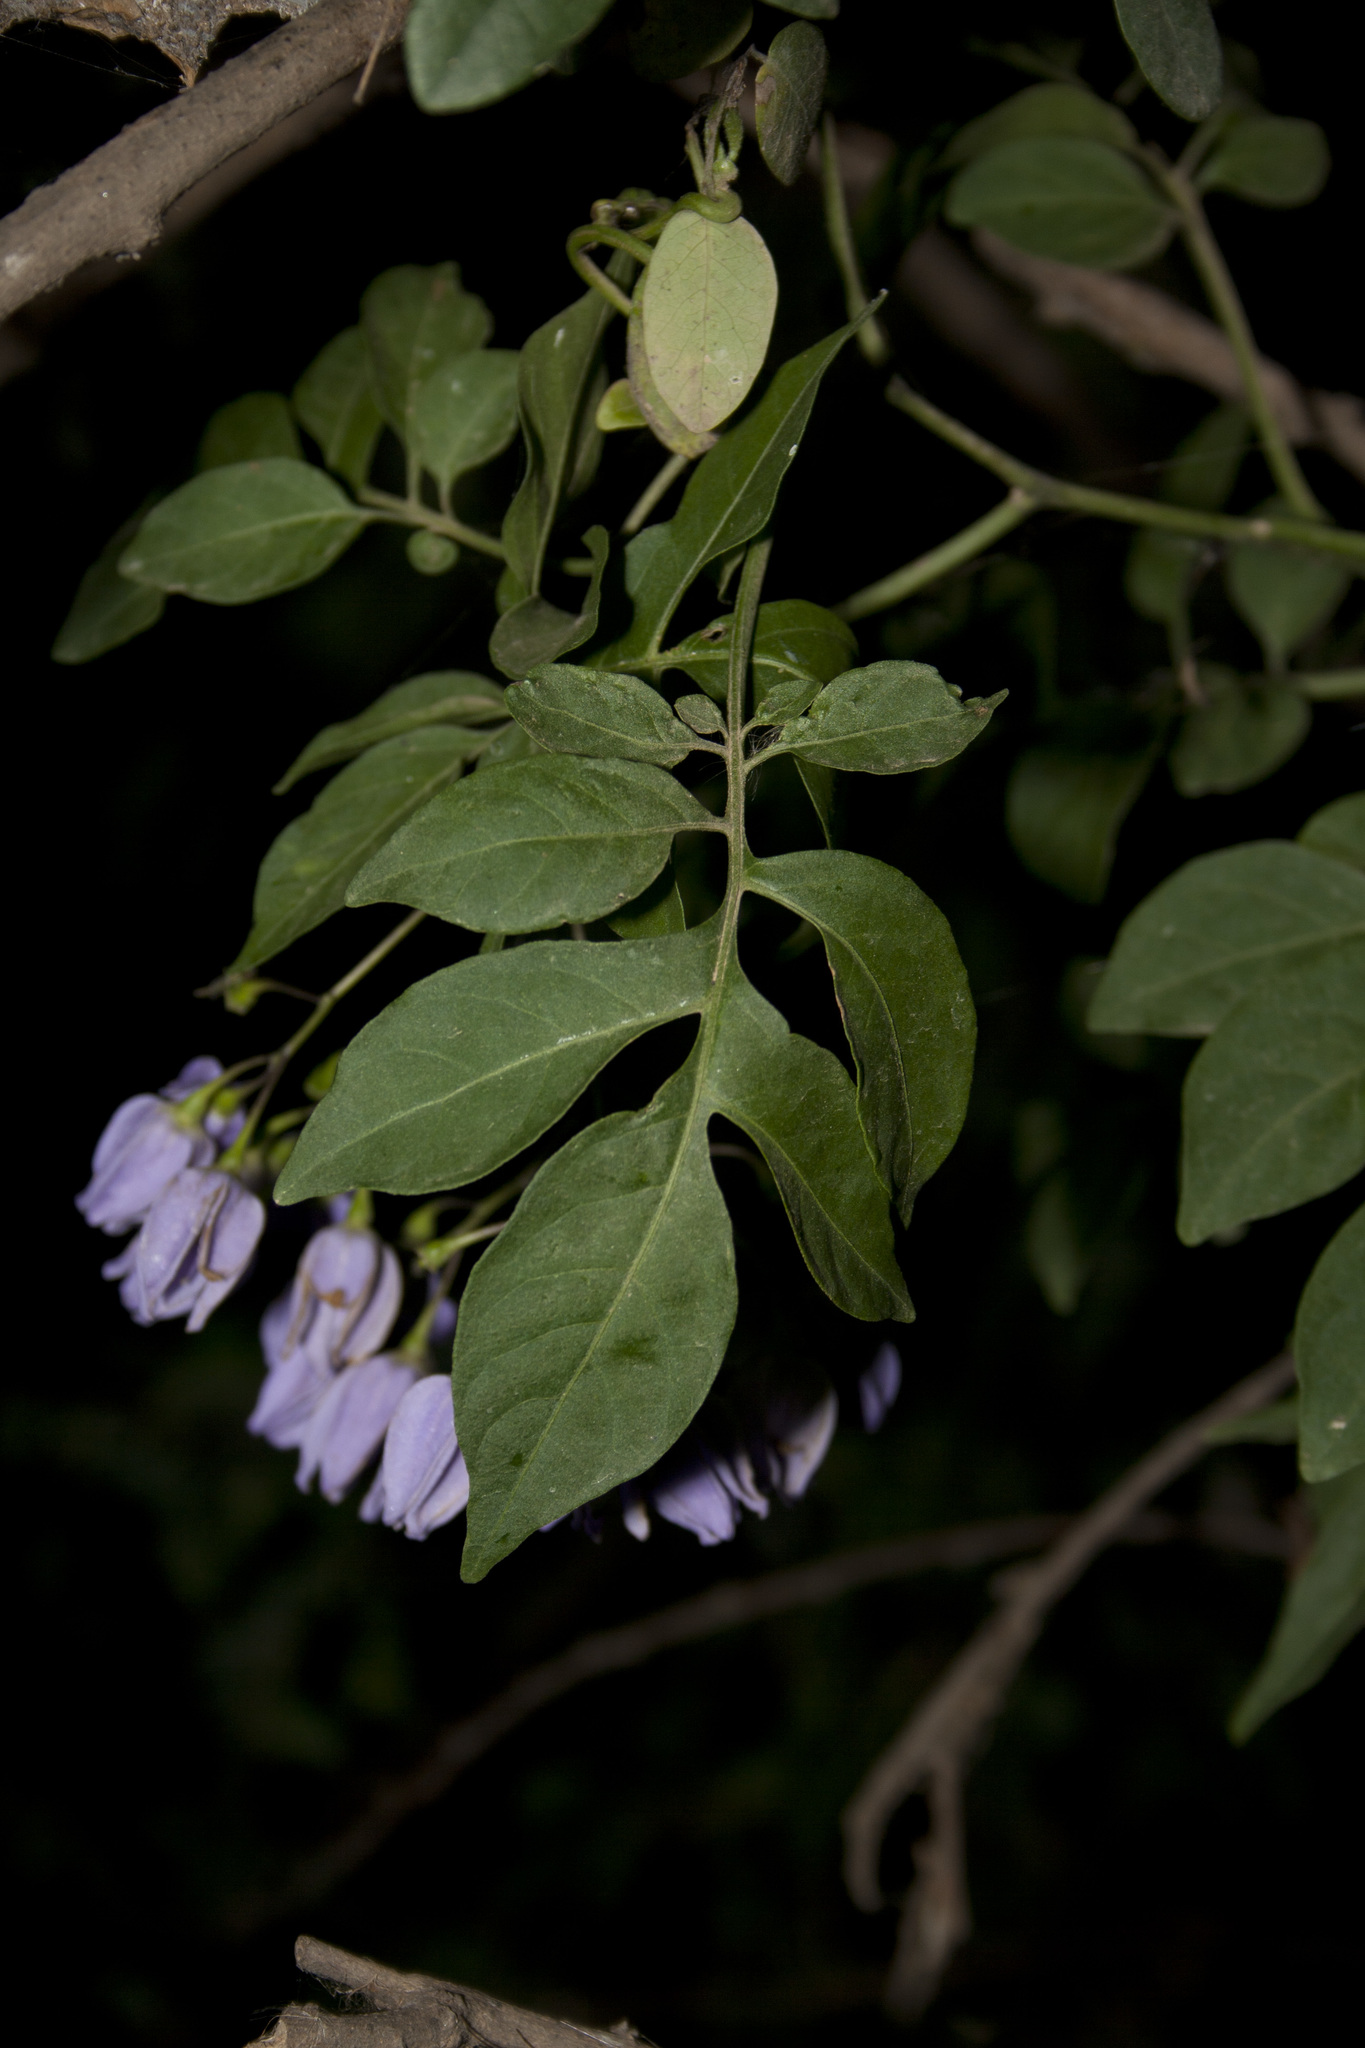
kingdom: Plantae
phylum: Tracheophyta
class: Magnoliopsida
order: Solanales
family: Solanaceae
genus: Solanum
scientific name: Solanum seaforthianum
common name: Brazilian nightshade
